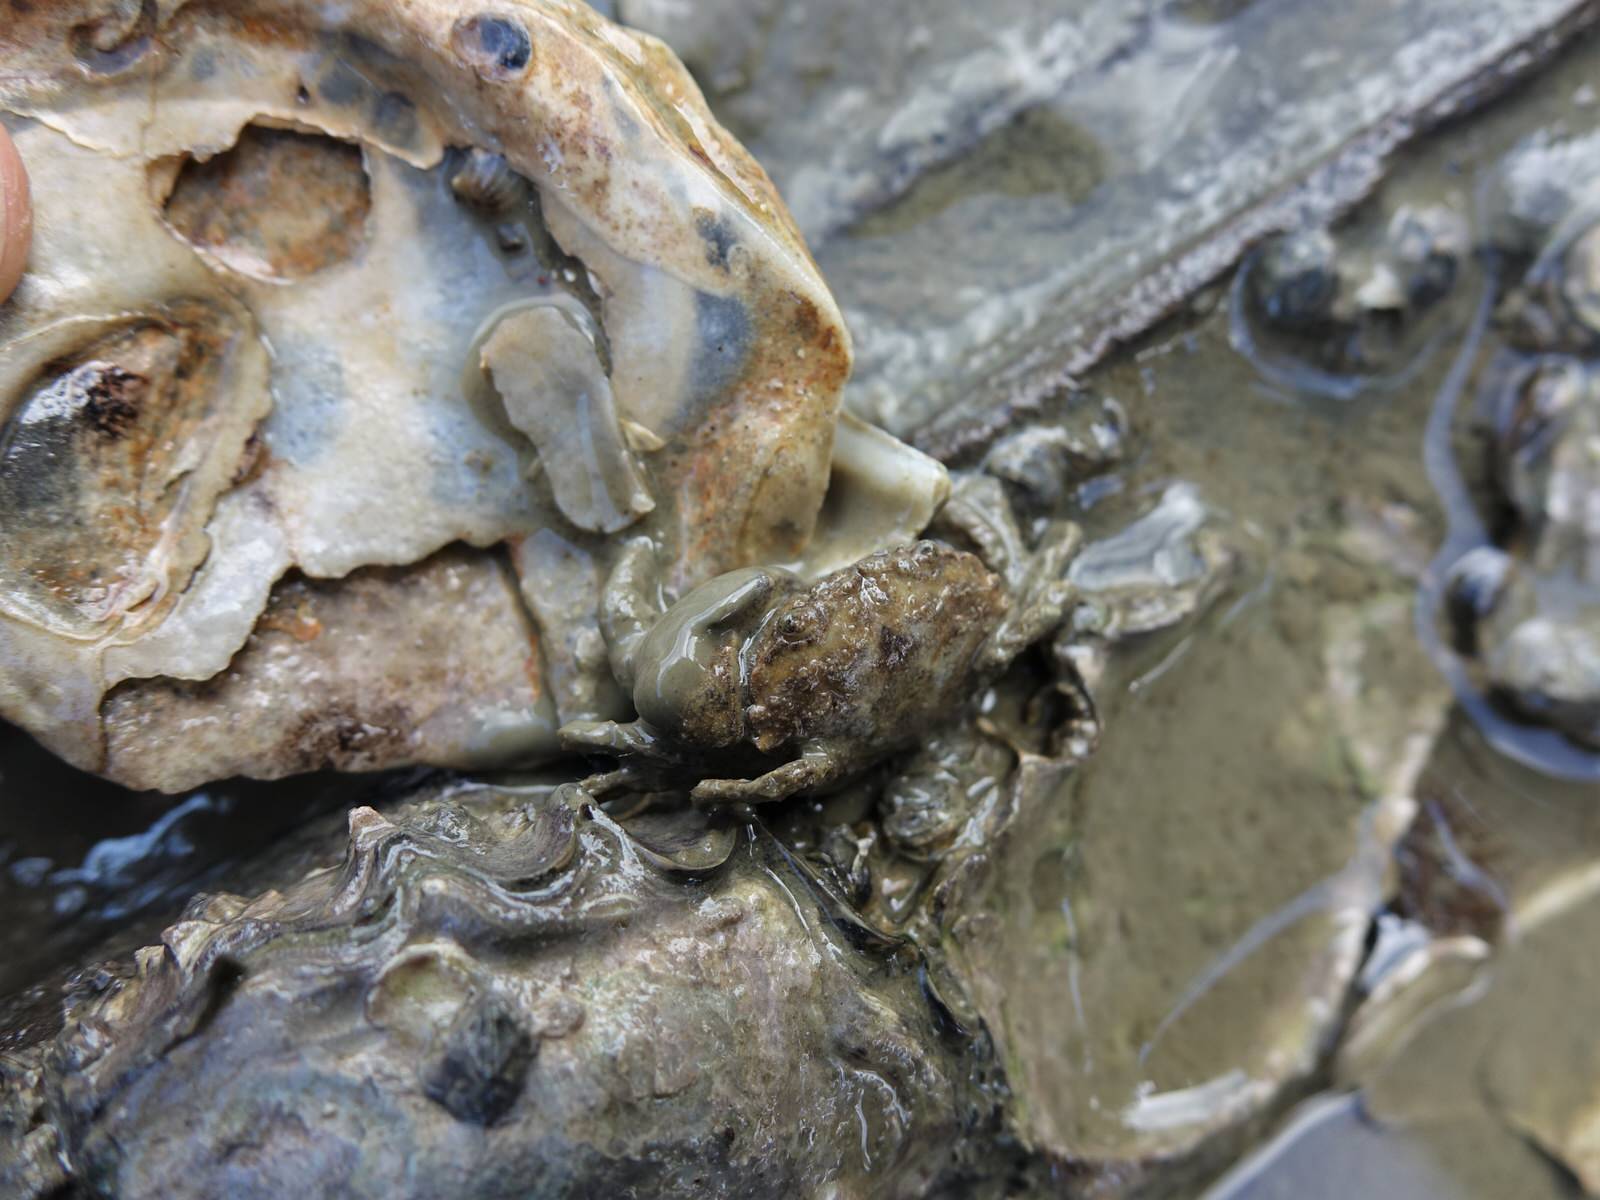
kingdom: Animalia
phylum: Arthropoda
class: Malacostraca
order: Decapoda
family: Pilumnidae
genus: Pilumnopeus
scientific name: Pilumnopeus serratifrons
